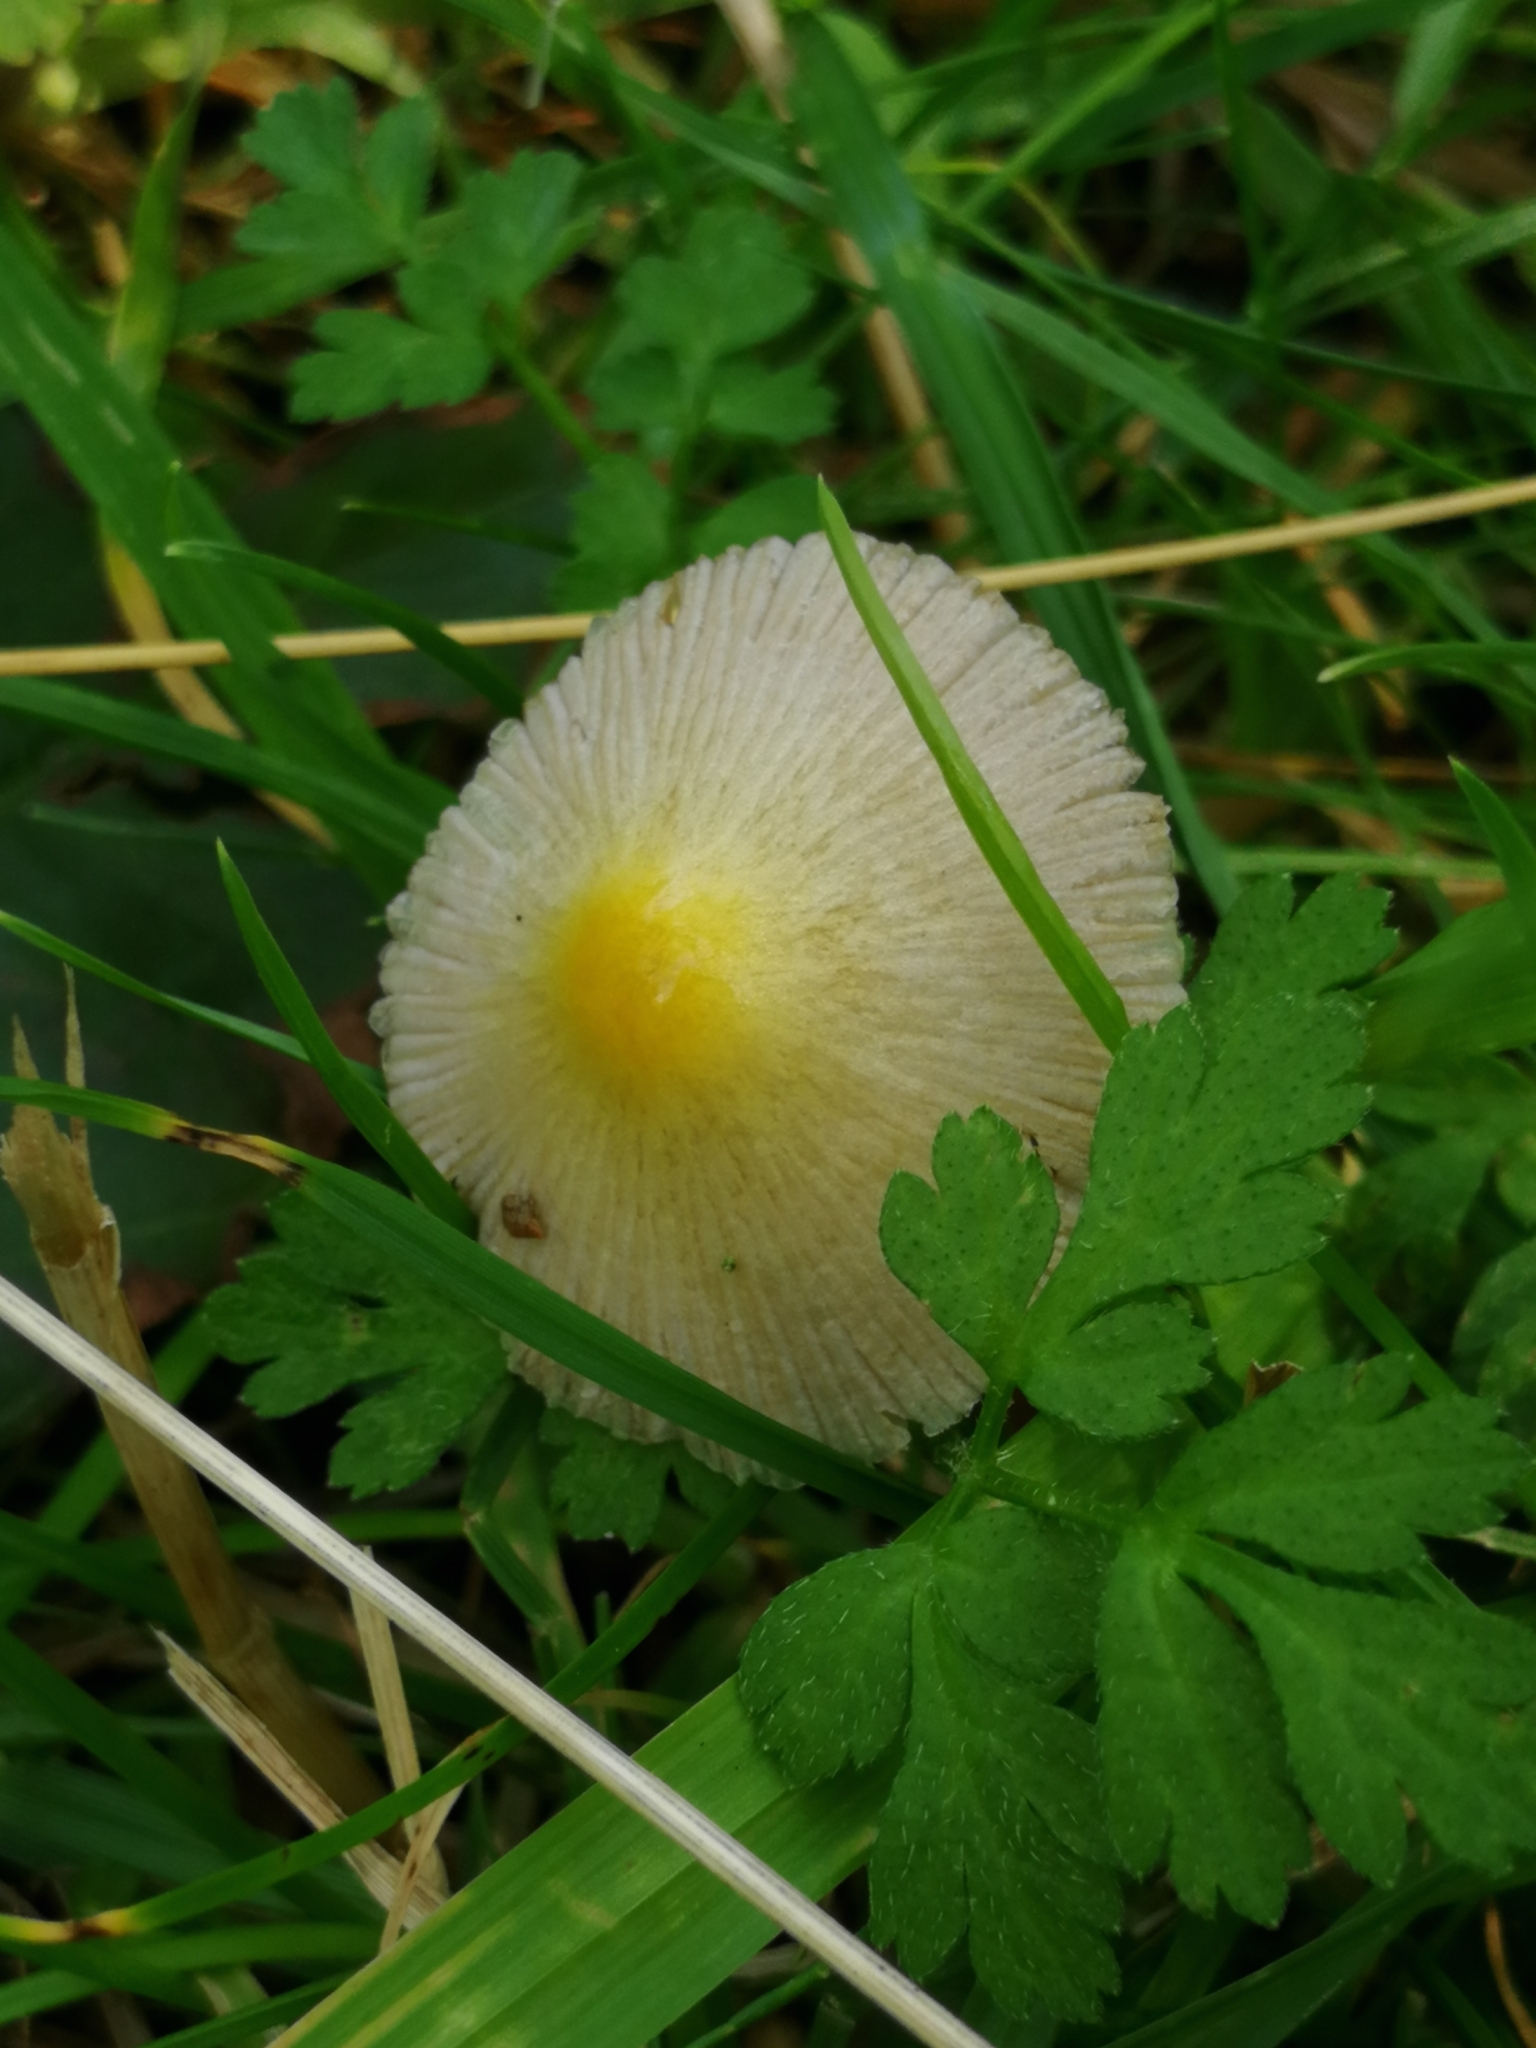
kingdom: Fungi
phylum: Basidiomycota
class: Agaricomycetes
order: Agaricales
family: Bolbitiaceae
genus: Bolbitius
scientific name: Bolbitius titubans
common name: Yellow fieldcap
